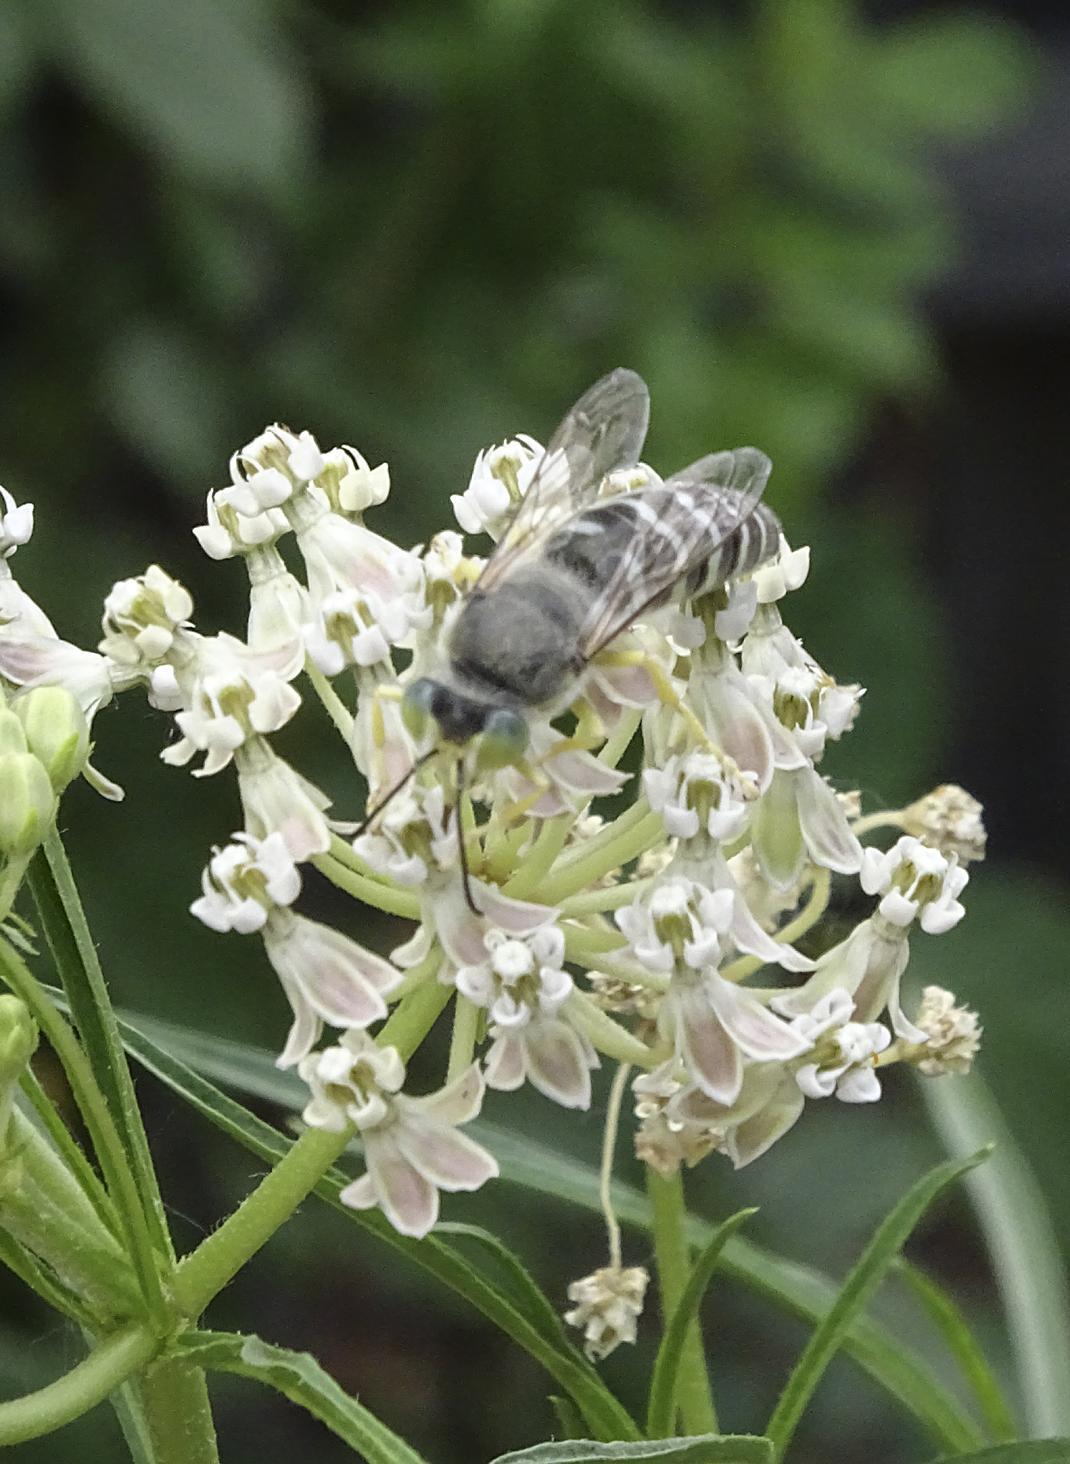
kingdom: Animalia
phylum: Arthropoda
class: Insecta
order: Hymenoptera
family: Crabronidae
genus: Bembix
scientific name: Bembix americana
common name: American sand wasp
